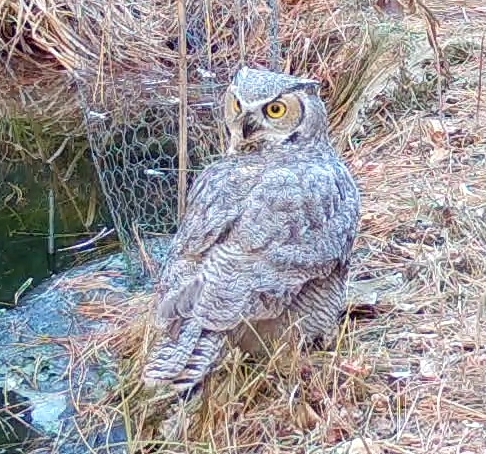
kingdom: Animalia
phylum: Chordata
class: Aves
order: Strigiformes
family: Strigidae
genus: Bubo
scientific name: Bubo virginianus
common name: Great horned owl
